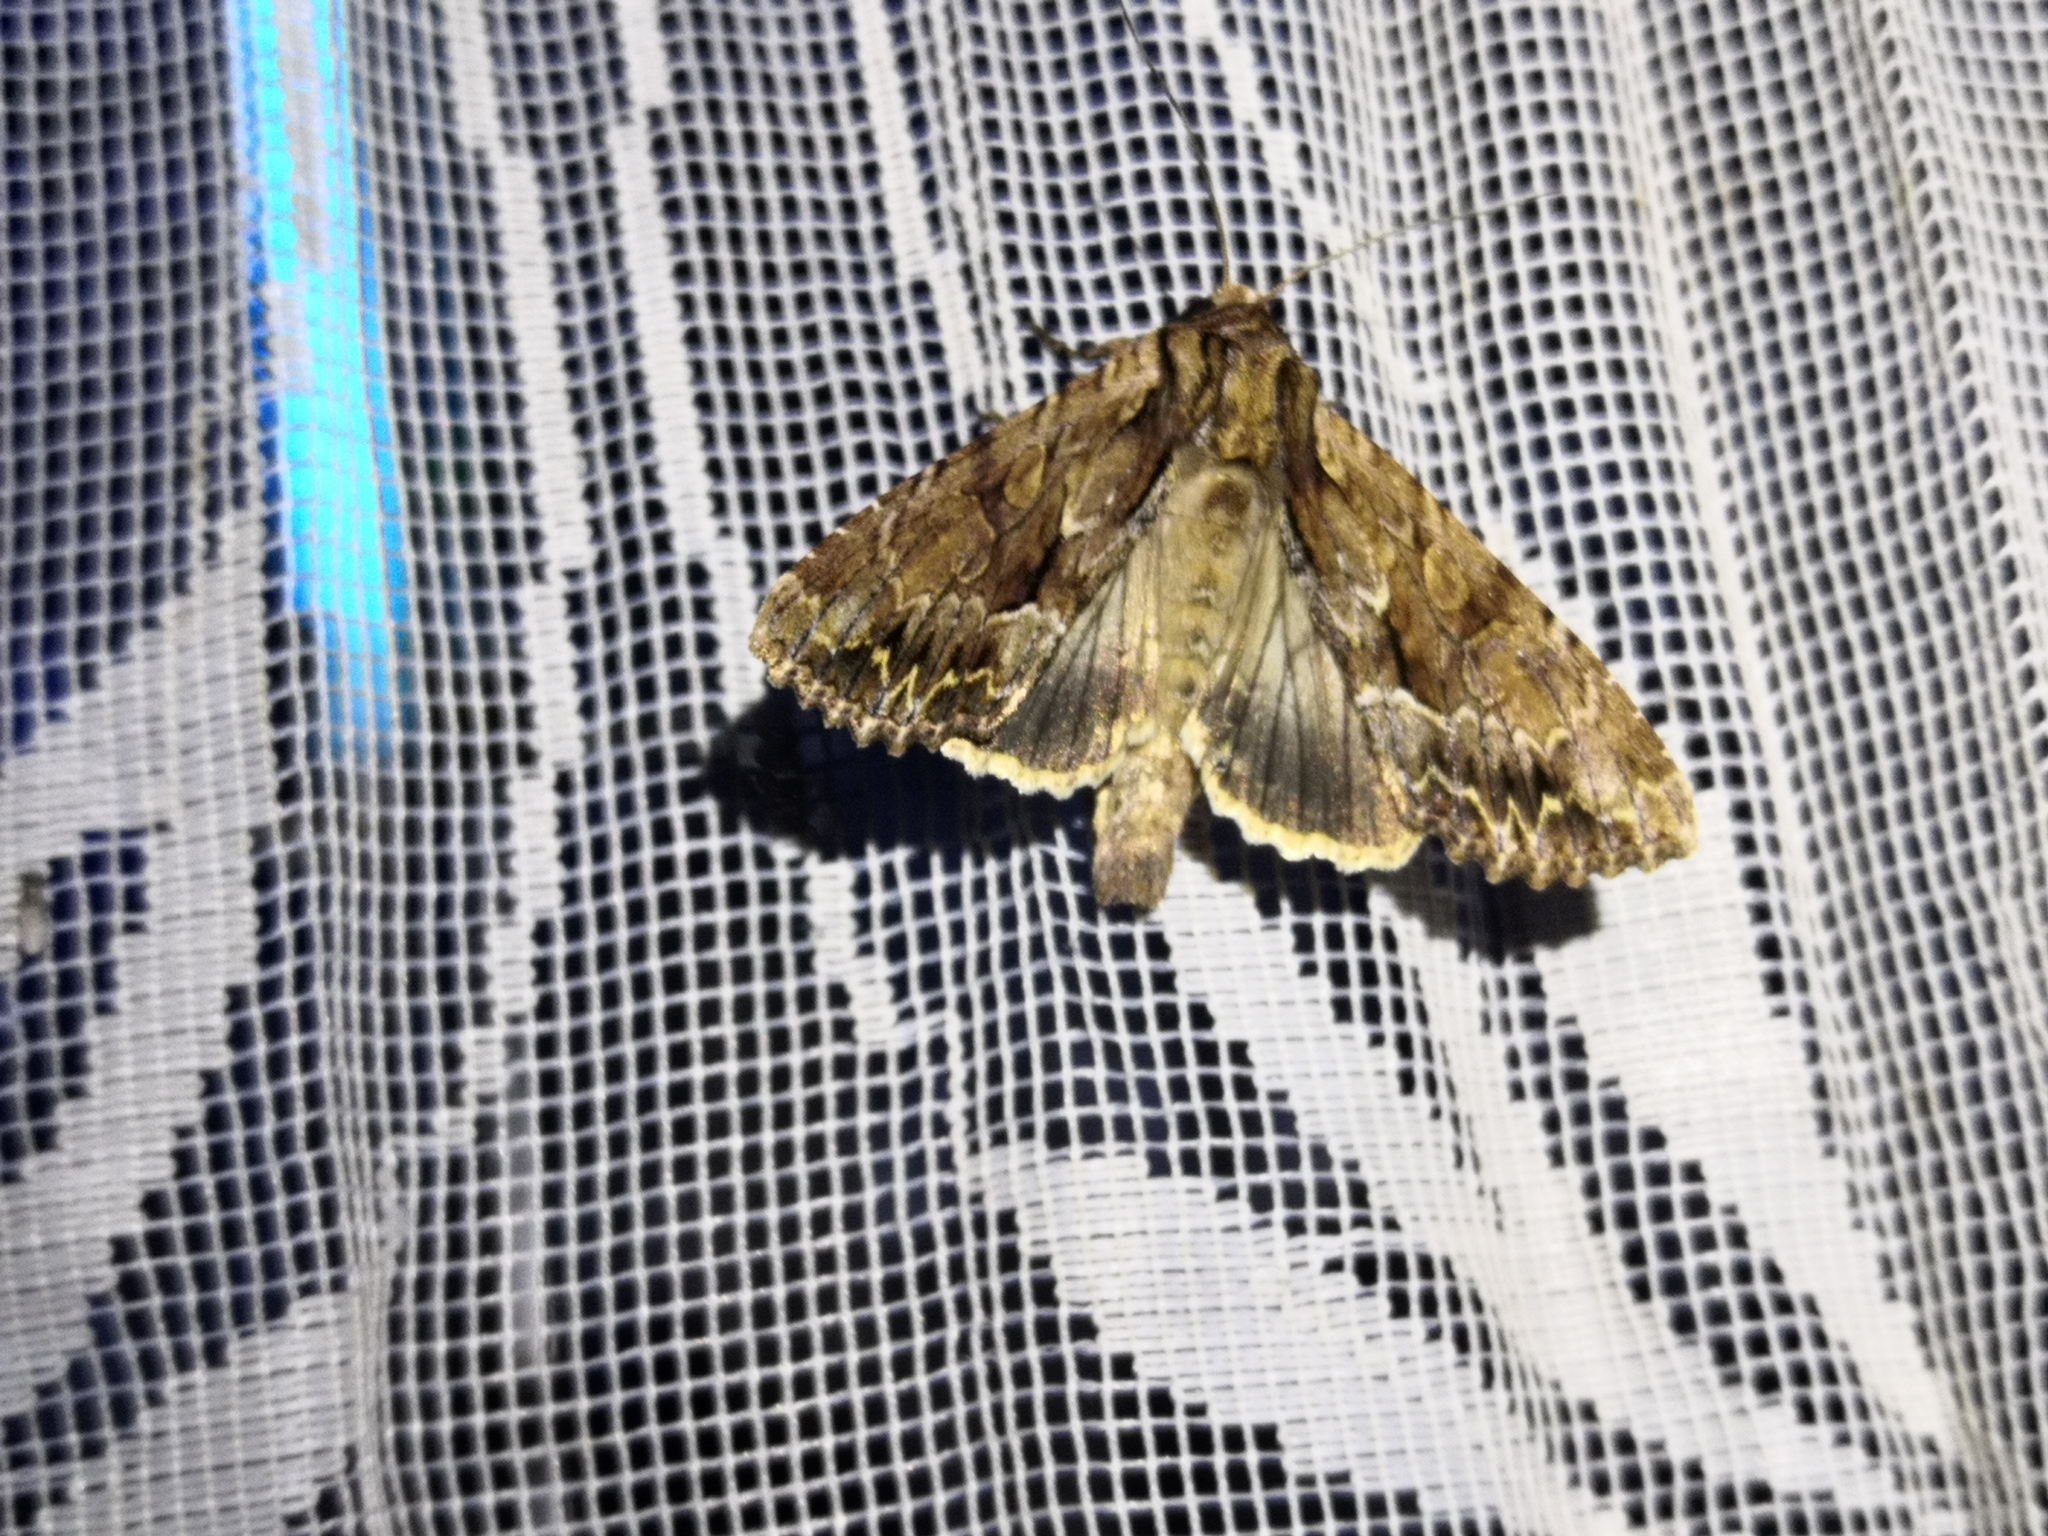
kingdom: Animalia
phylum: Arthropoda
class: Insecta
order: Lepidoptera
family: Noctuidae
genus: Apamea
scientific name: Apamea monoglypha
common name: Dark arches
